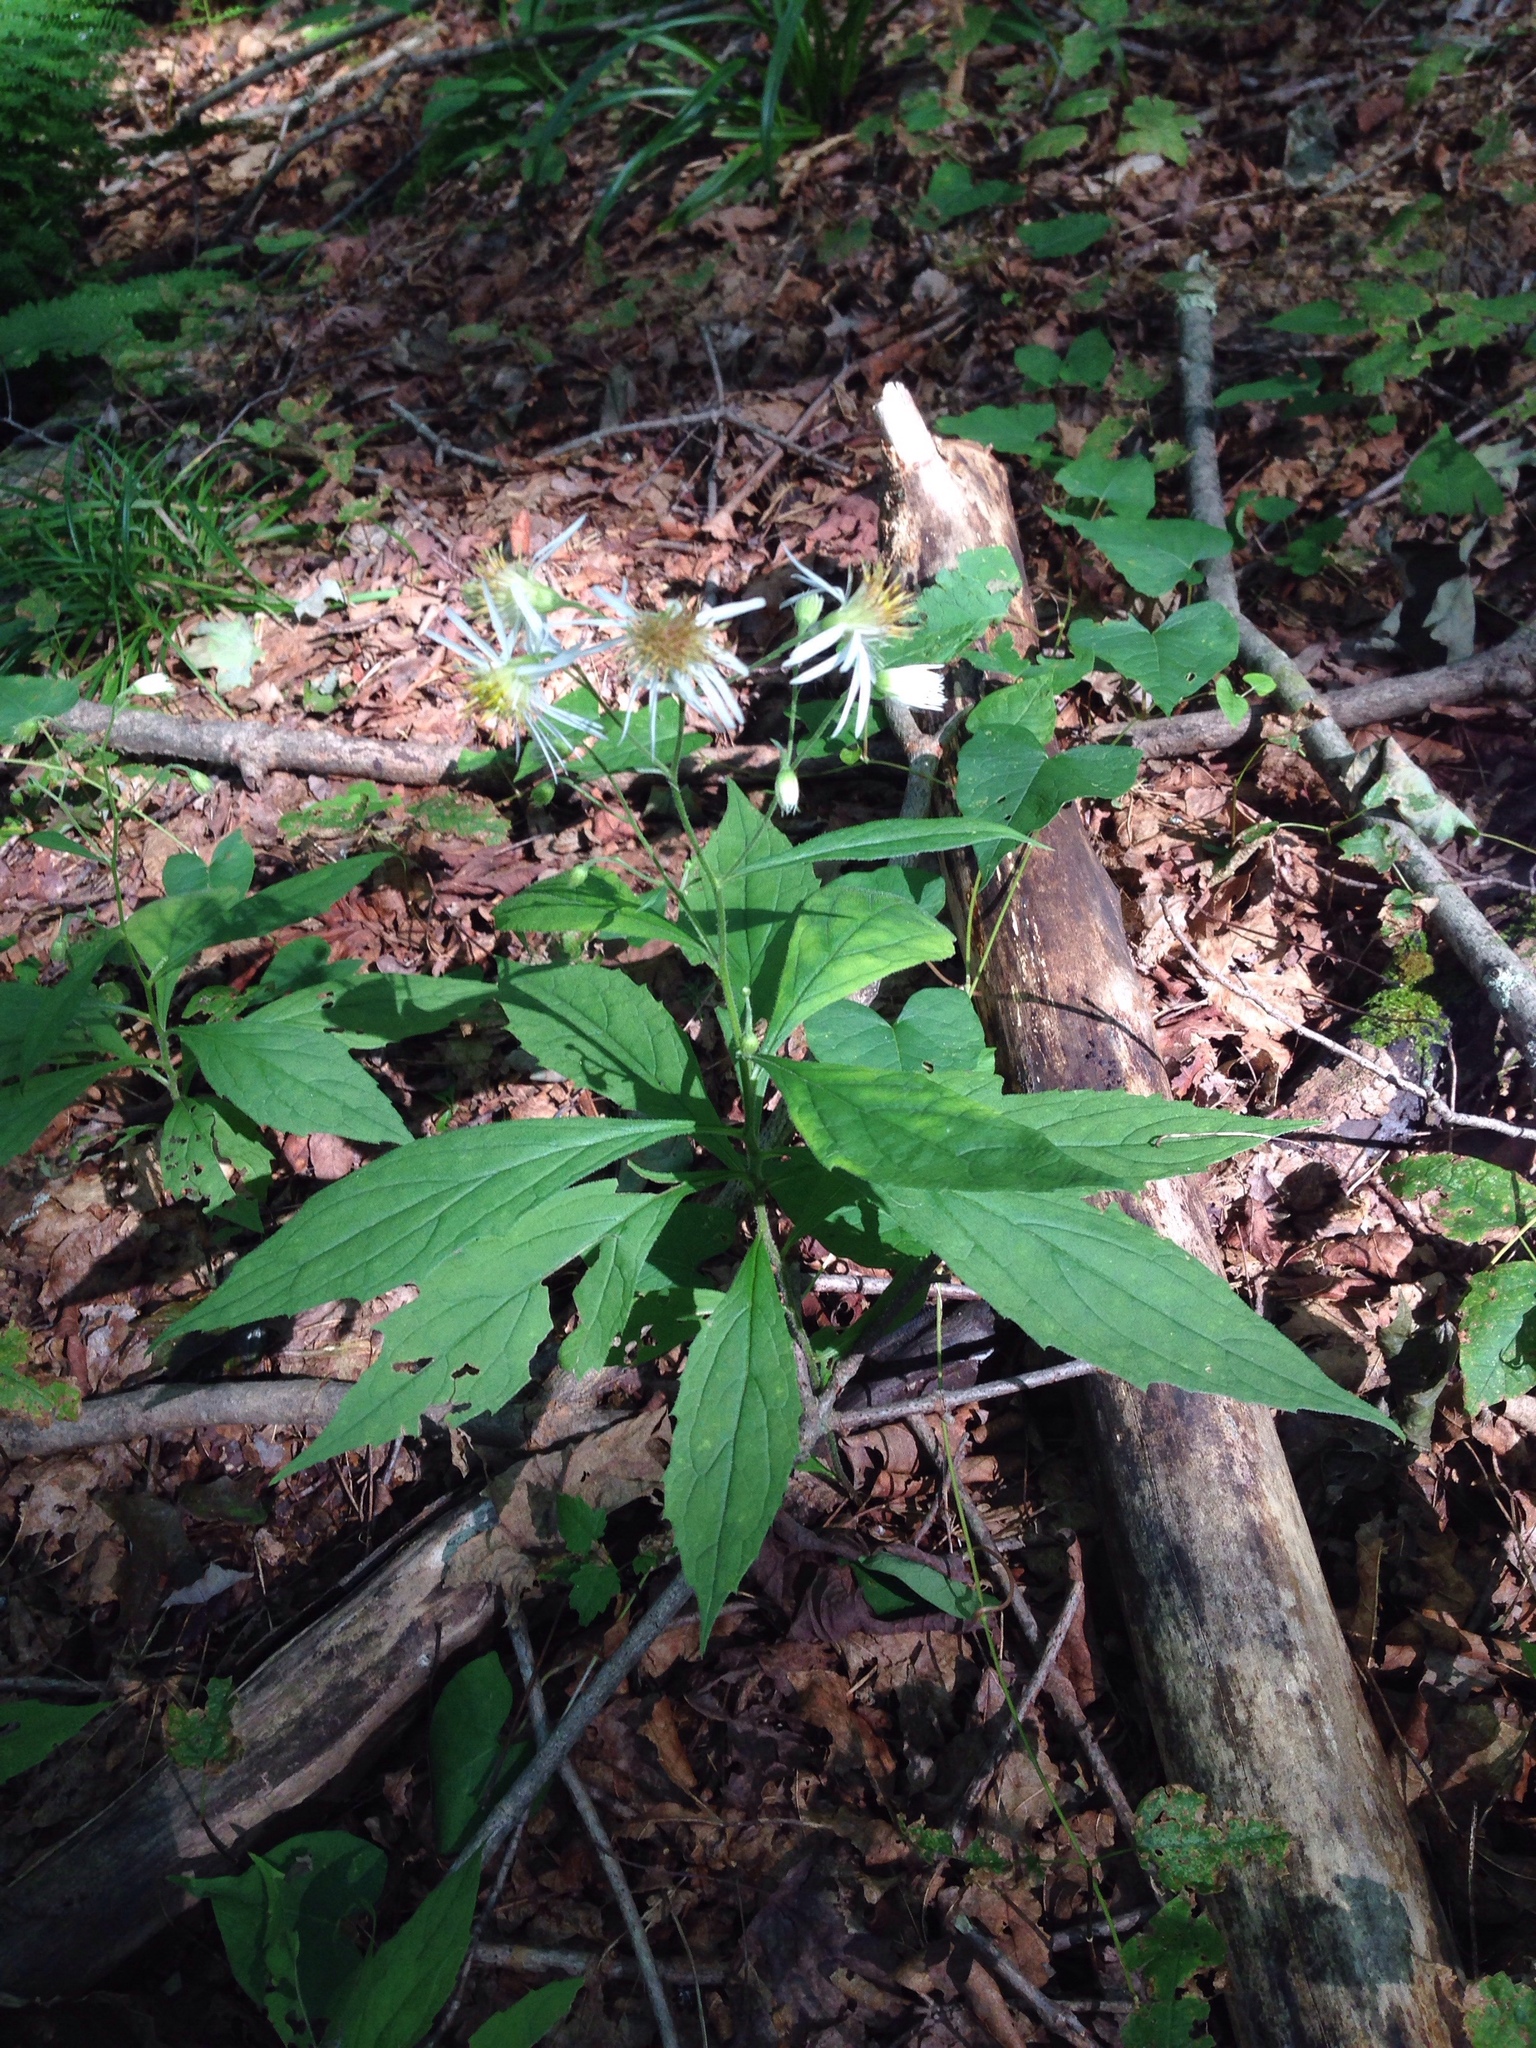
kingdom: Plantae
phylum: Tracheophyta
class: Magnoliopsida
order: Asterales
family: Asteraceae
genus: Oclemena
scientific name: Oclemena acuminata
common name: Mountain aster
